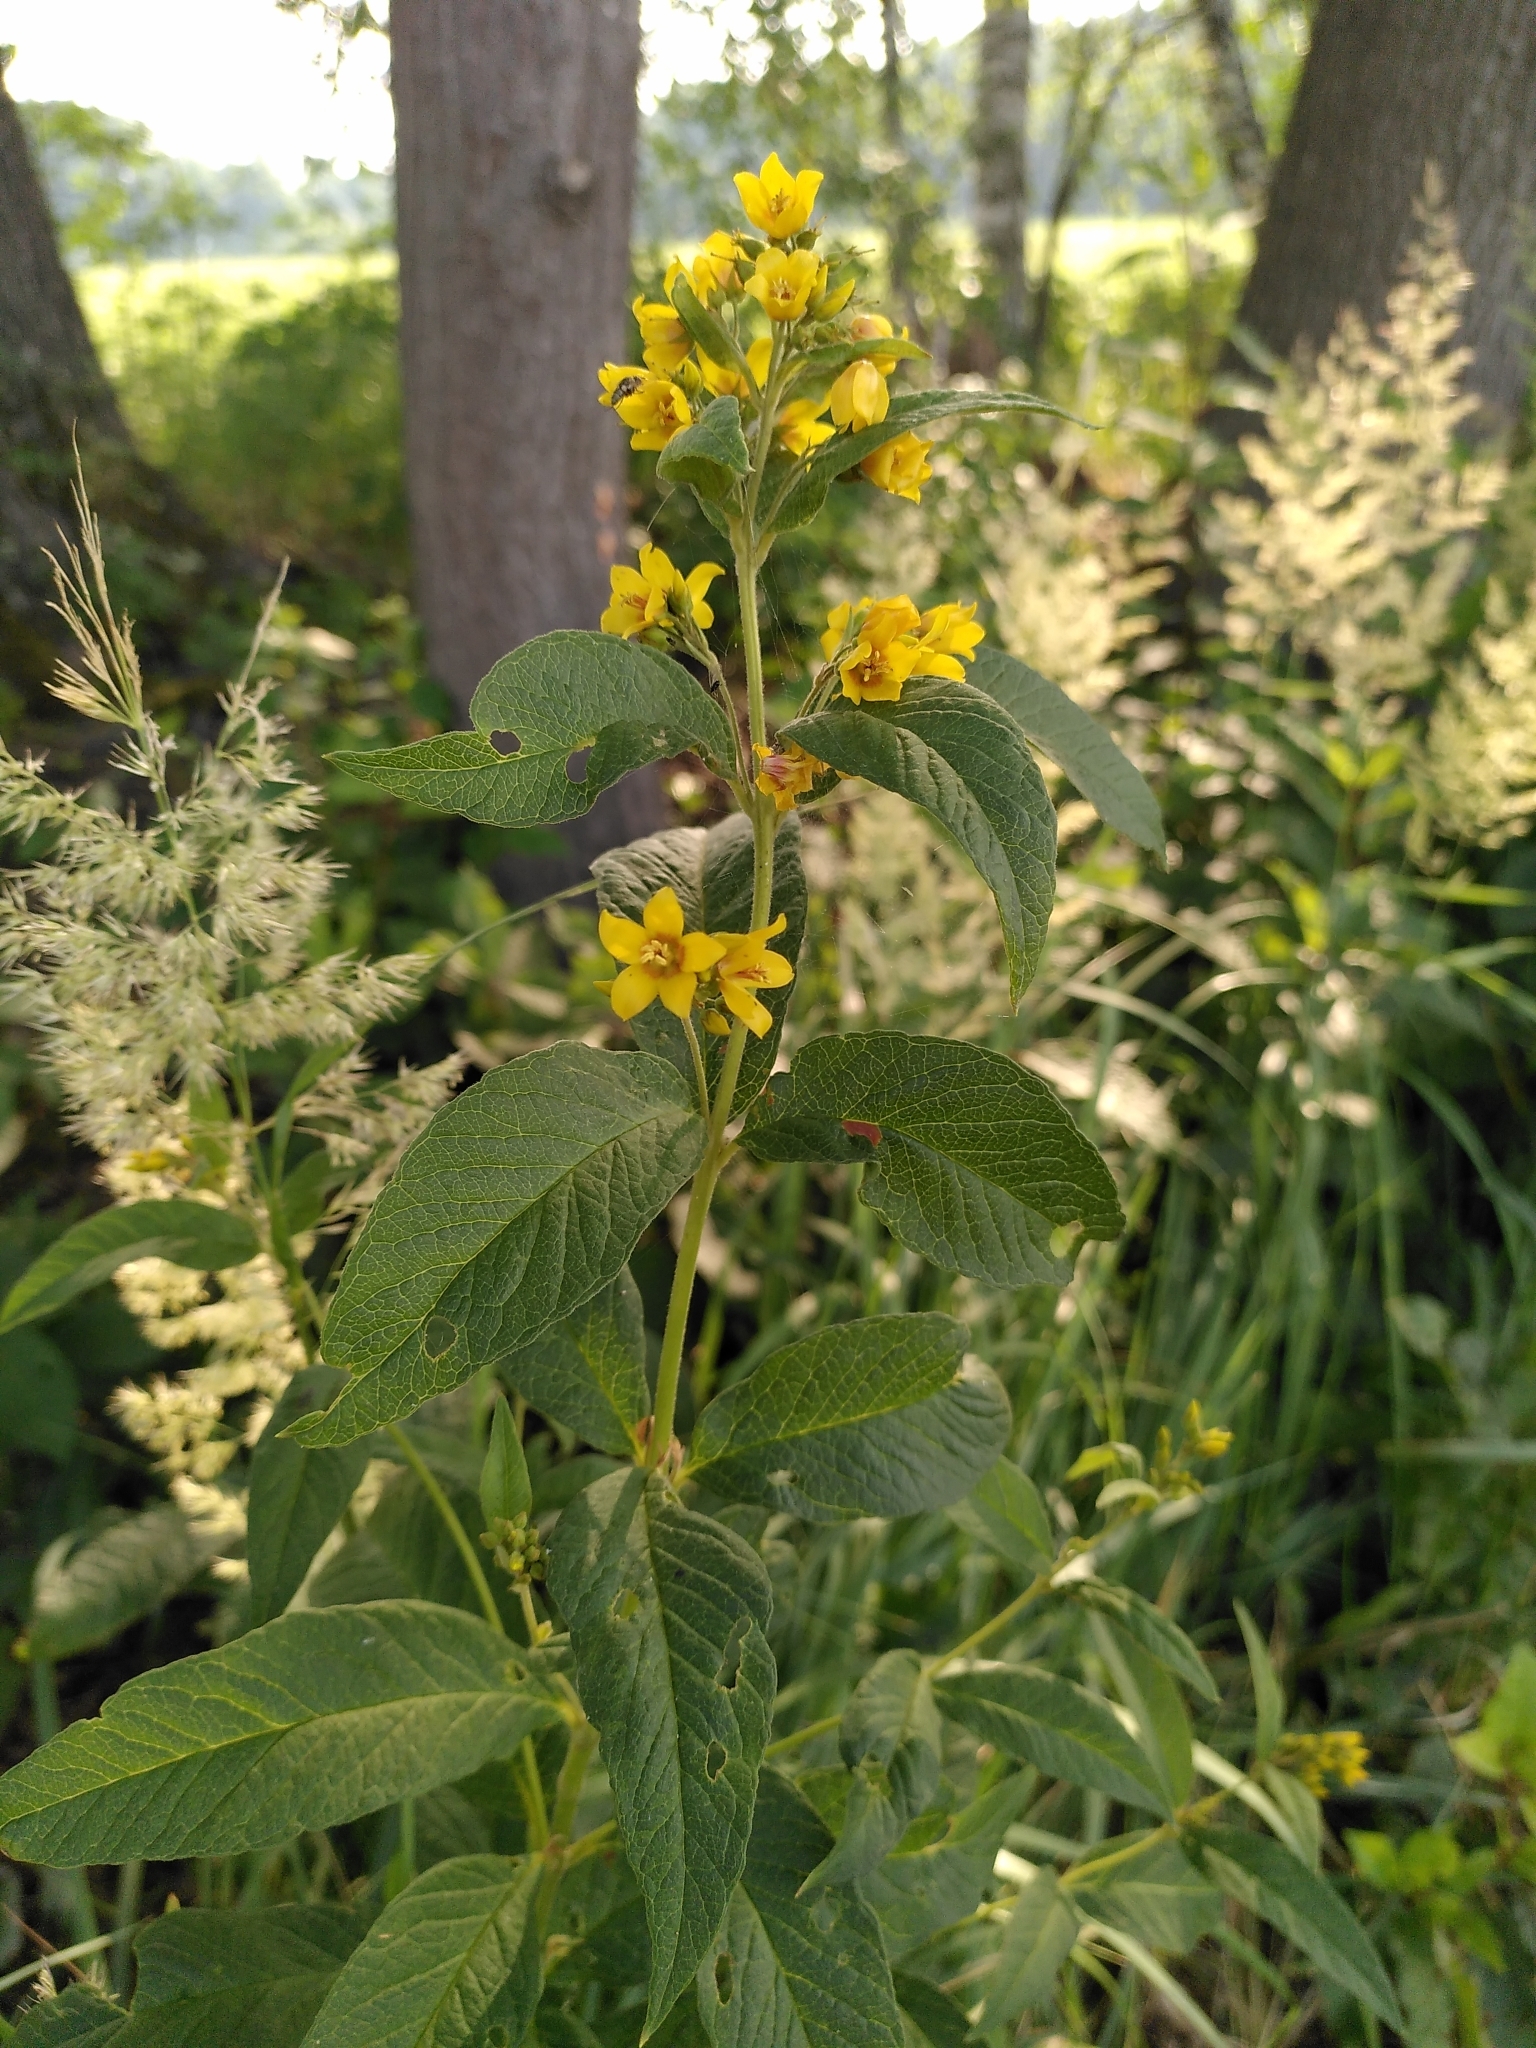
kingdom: Plantae
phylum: Tracheophyta
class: Magnoliopsida
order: Ericales
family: Primulaceae
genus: Lysimachia
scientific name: Lysimachia vulgaris
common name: Yellow loosestrife
